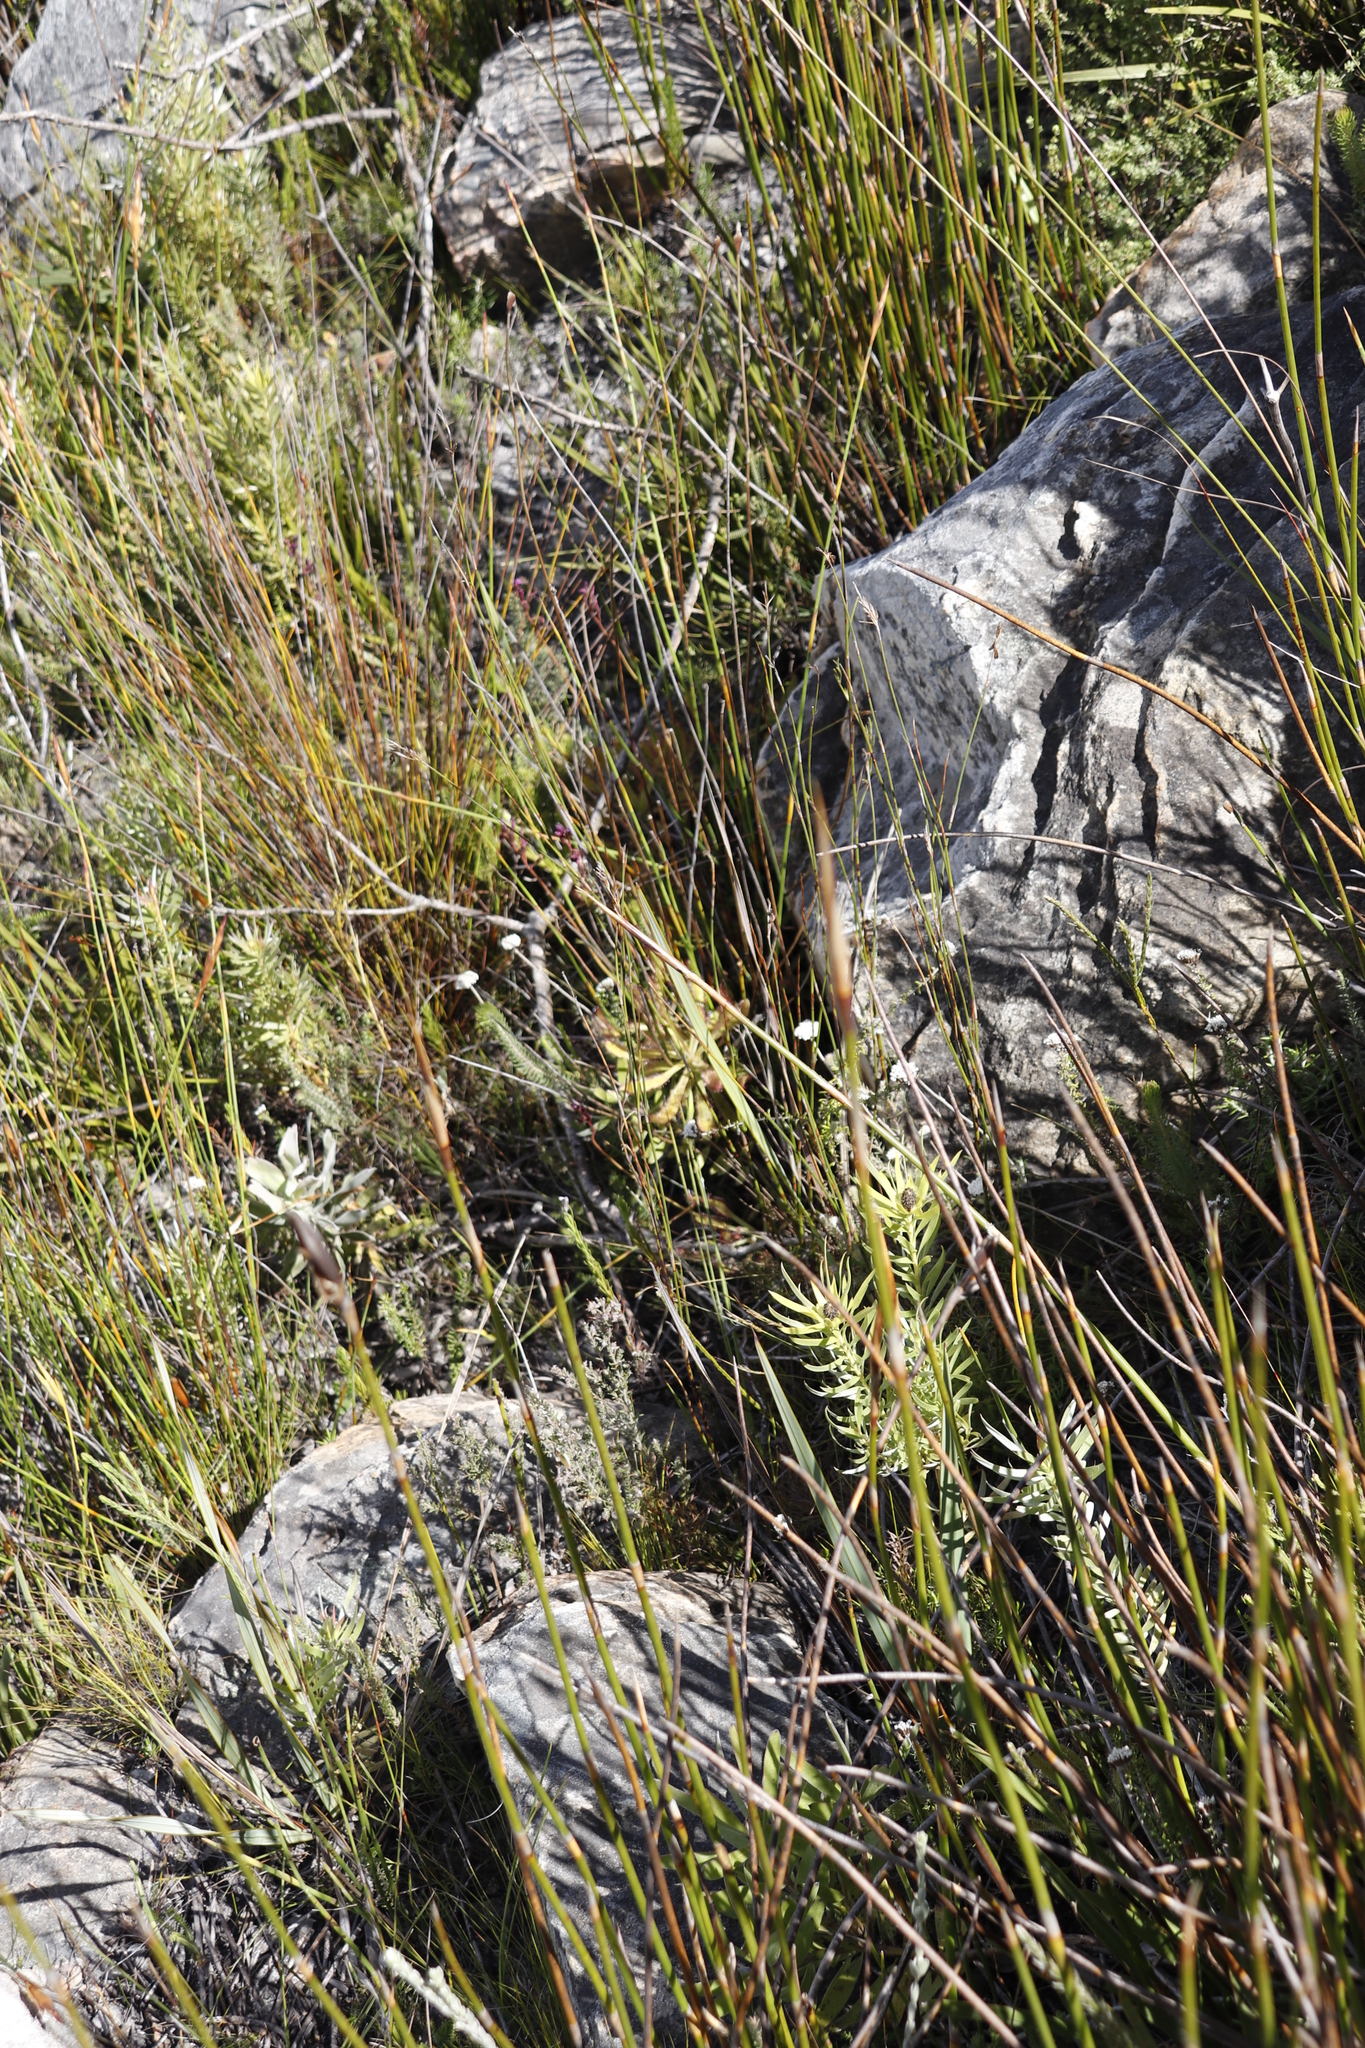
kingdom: Plantae
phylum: Tracheophyta
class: Magnoliopsida
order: Caryophyllales
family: Droseraceae
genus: Drosera
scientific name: Drosera hilaris
